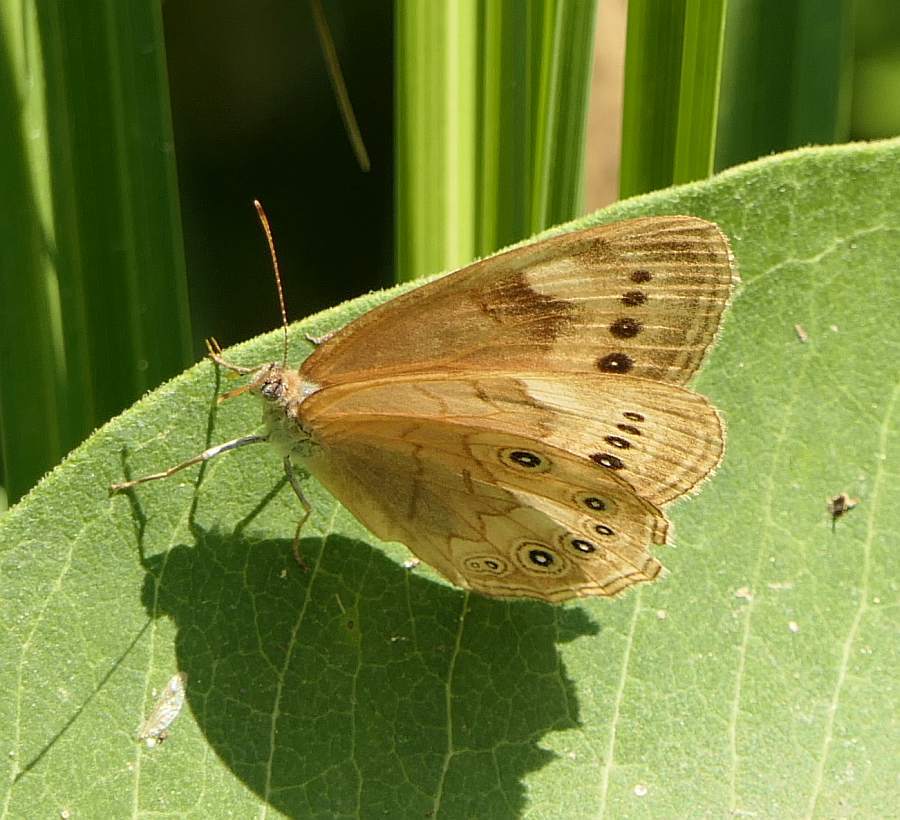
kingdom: Animalia
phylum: Arthropoda
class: Insecta
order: Lepidoptera
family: Nymphalidae
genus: Lethe
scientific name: Lethe eurydice
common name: Eyed brown
